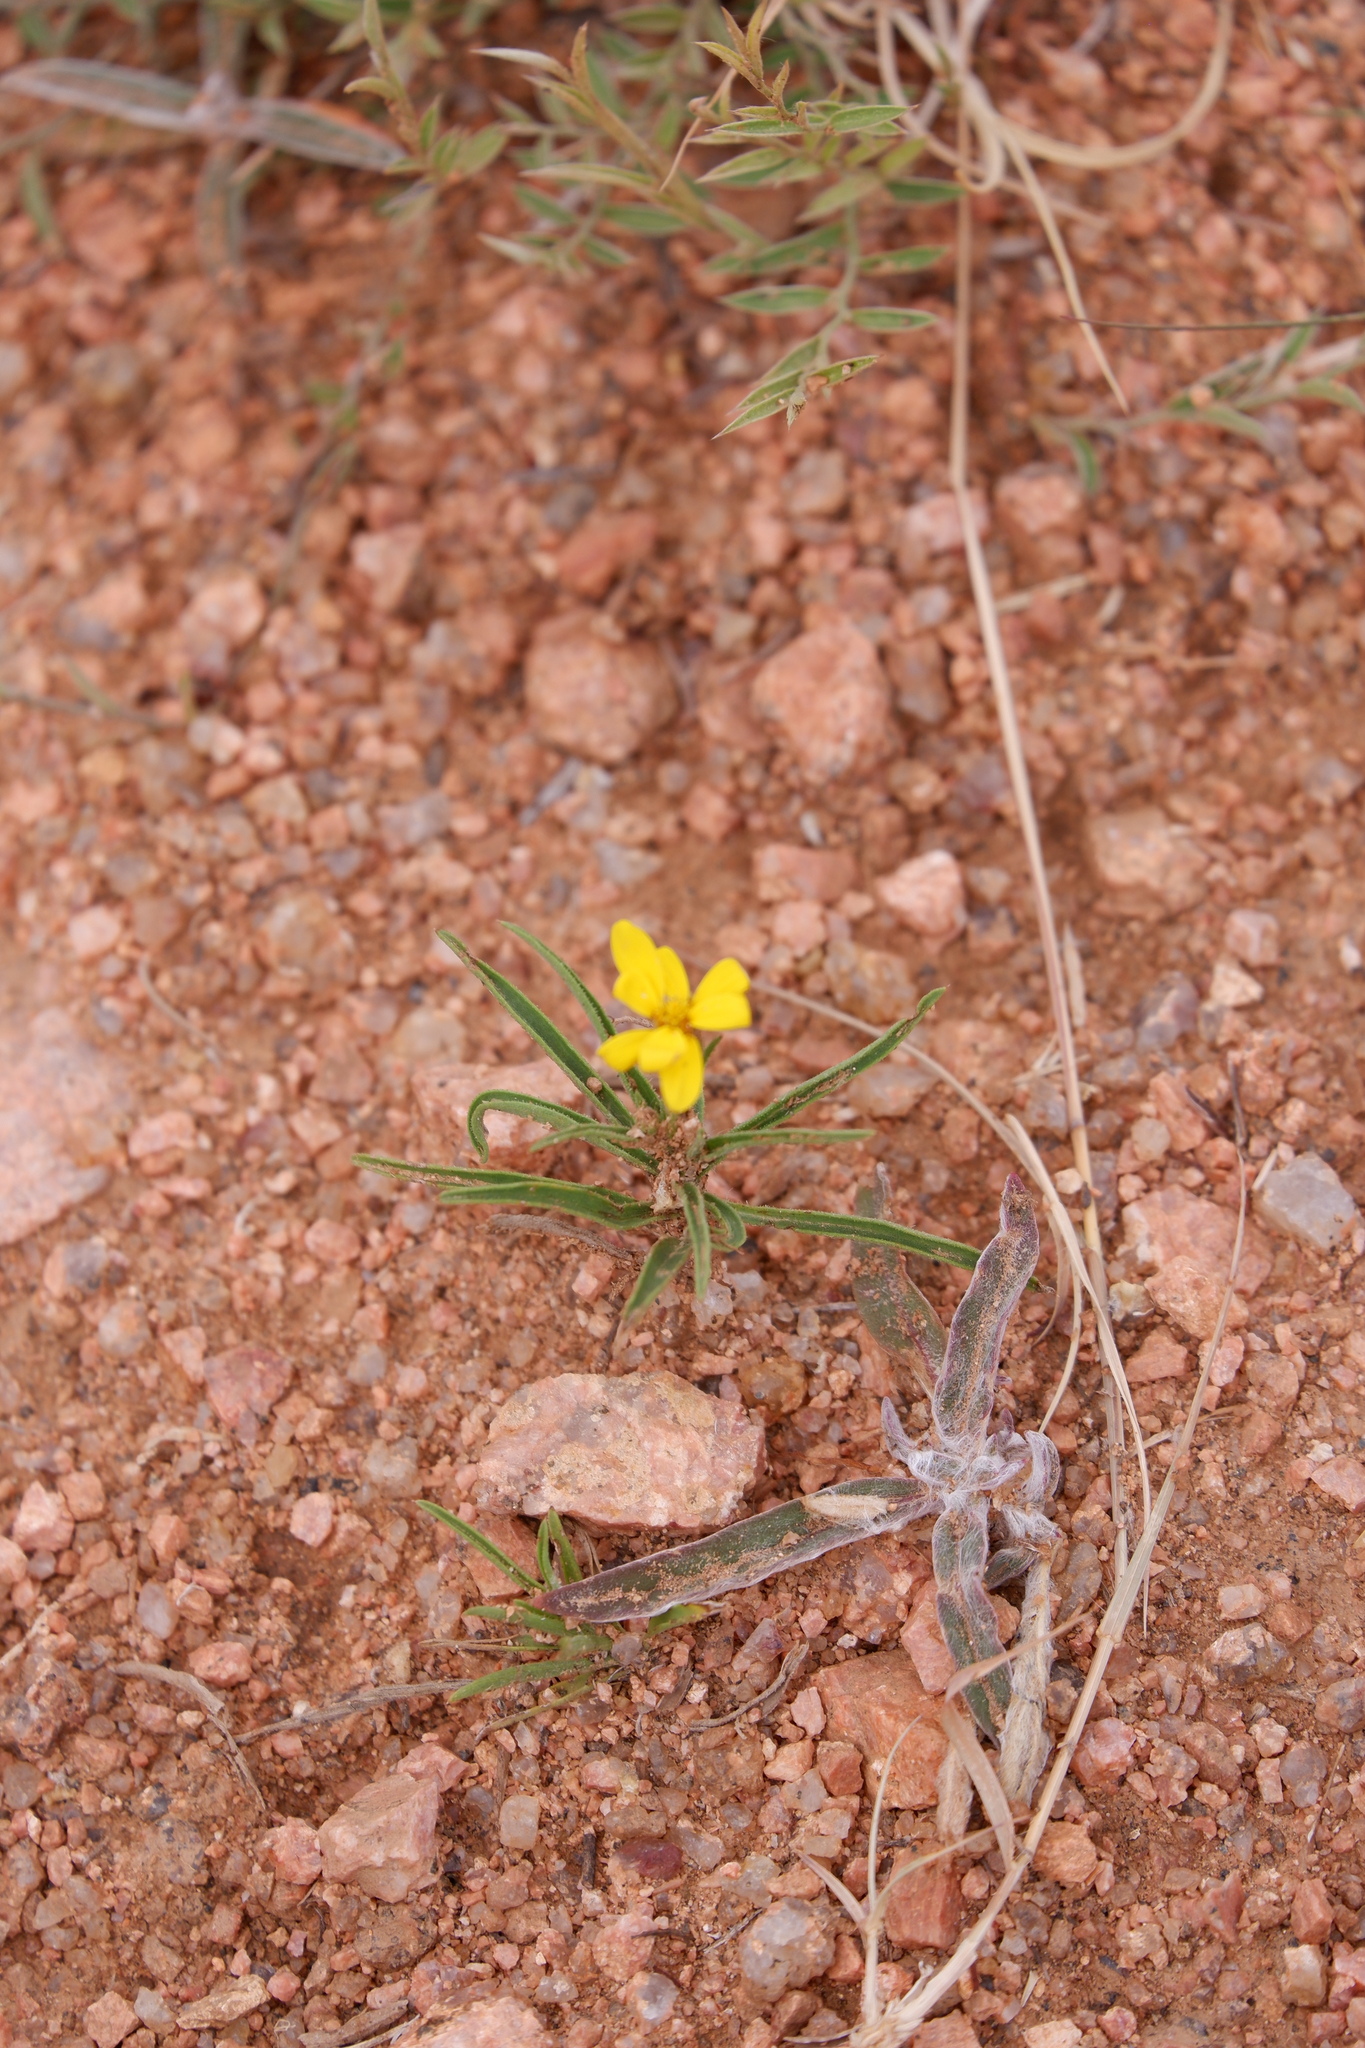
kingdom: Plantae
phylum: Tracheophyta
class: Magnoliopsida
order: Asterales
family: Asteraceae
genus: Croptilon
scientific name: Croptilon hookerianum
